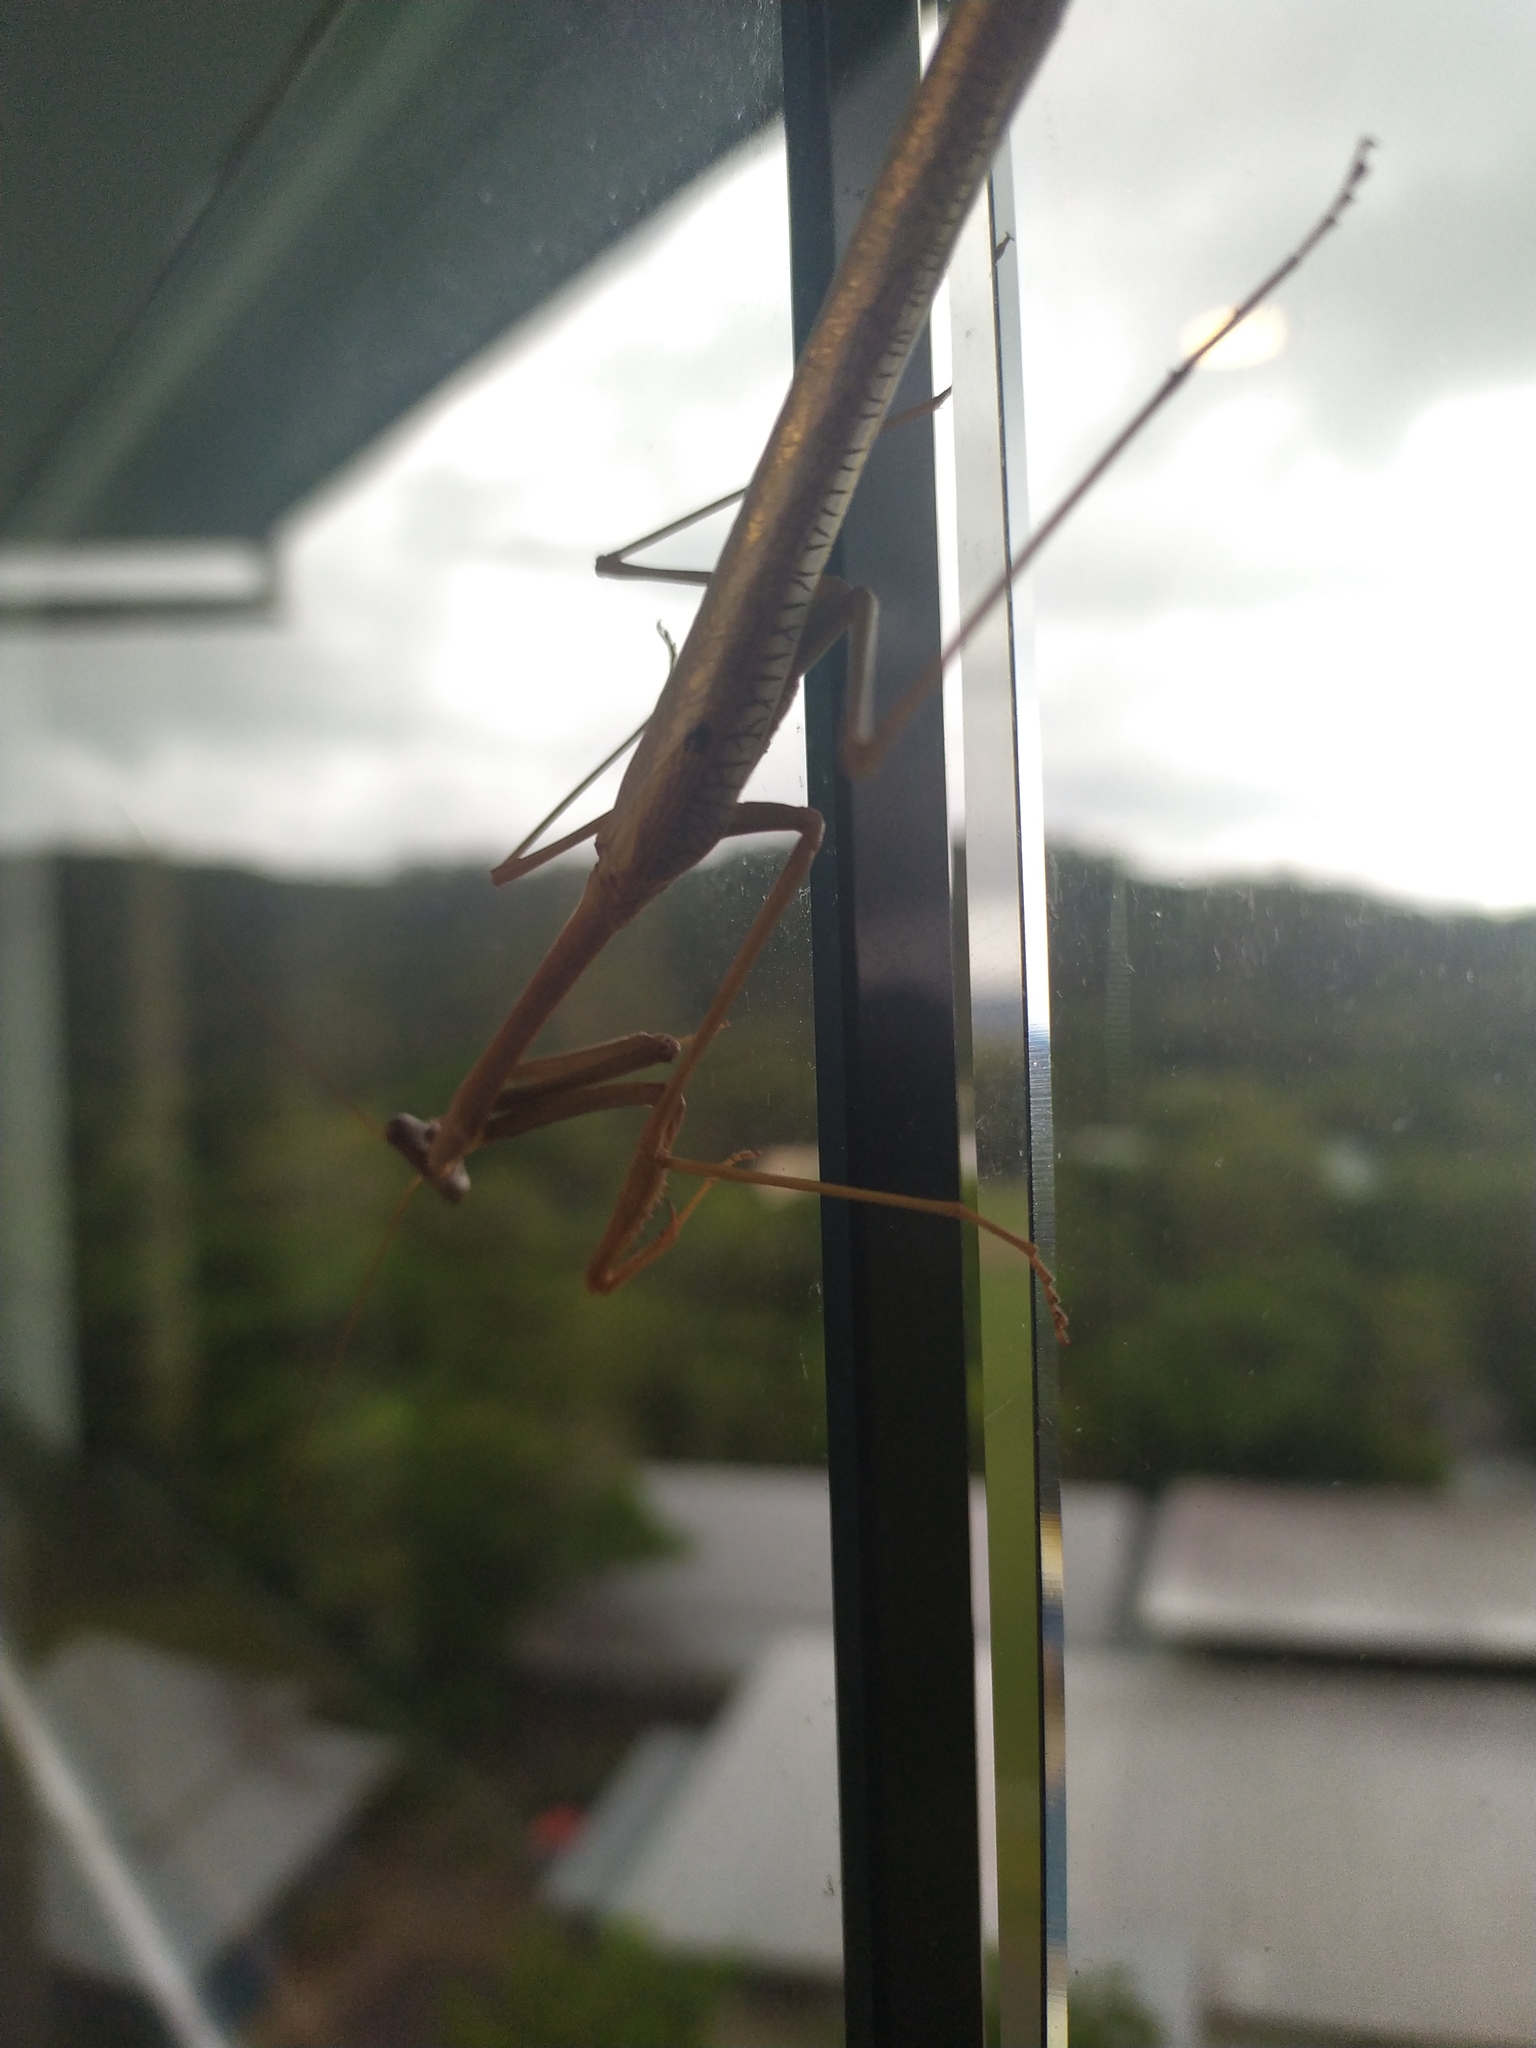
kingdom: Animalia
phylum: Arthropoda
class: Insecta
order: Mantodea
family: Mantidae
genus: Archimantis
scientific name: Archimantis latistyla
